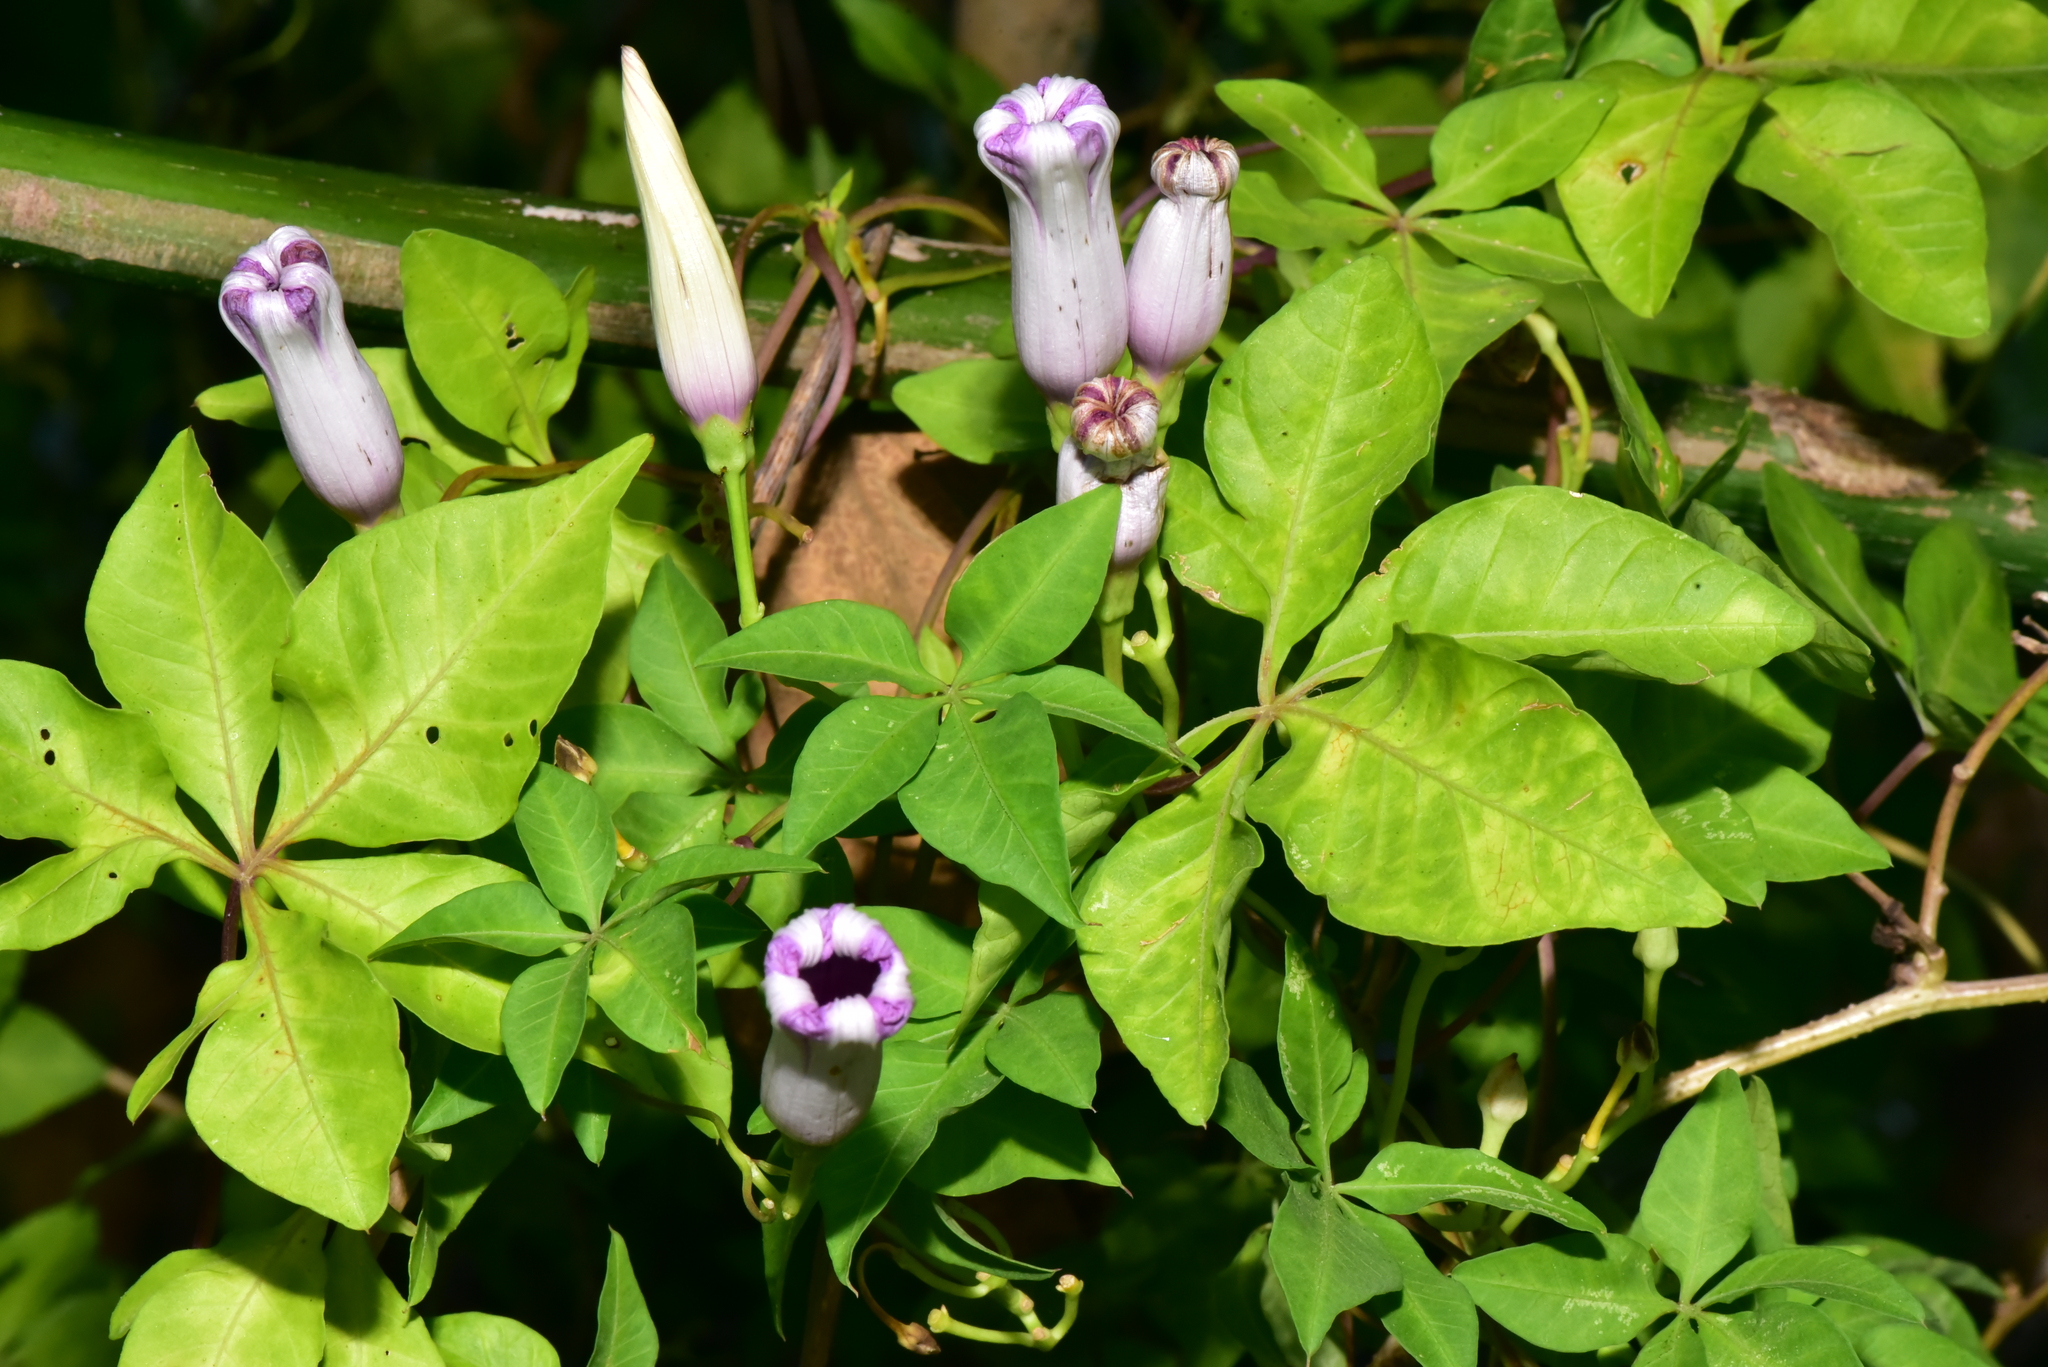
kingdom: Plantae
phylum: Tracheophyta
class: Magnoliopsida
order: Solanales
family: Convolvulaceae
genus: Ipomoea
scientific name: Ipomoea cairica
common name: Mile a minute vine
